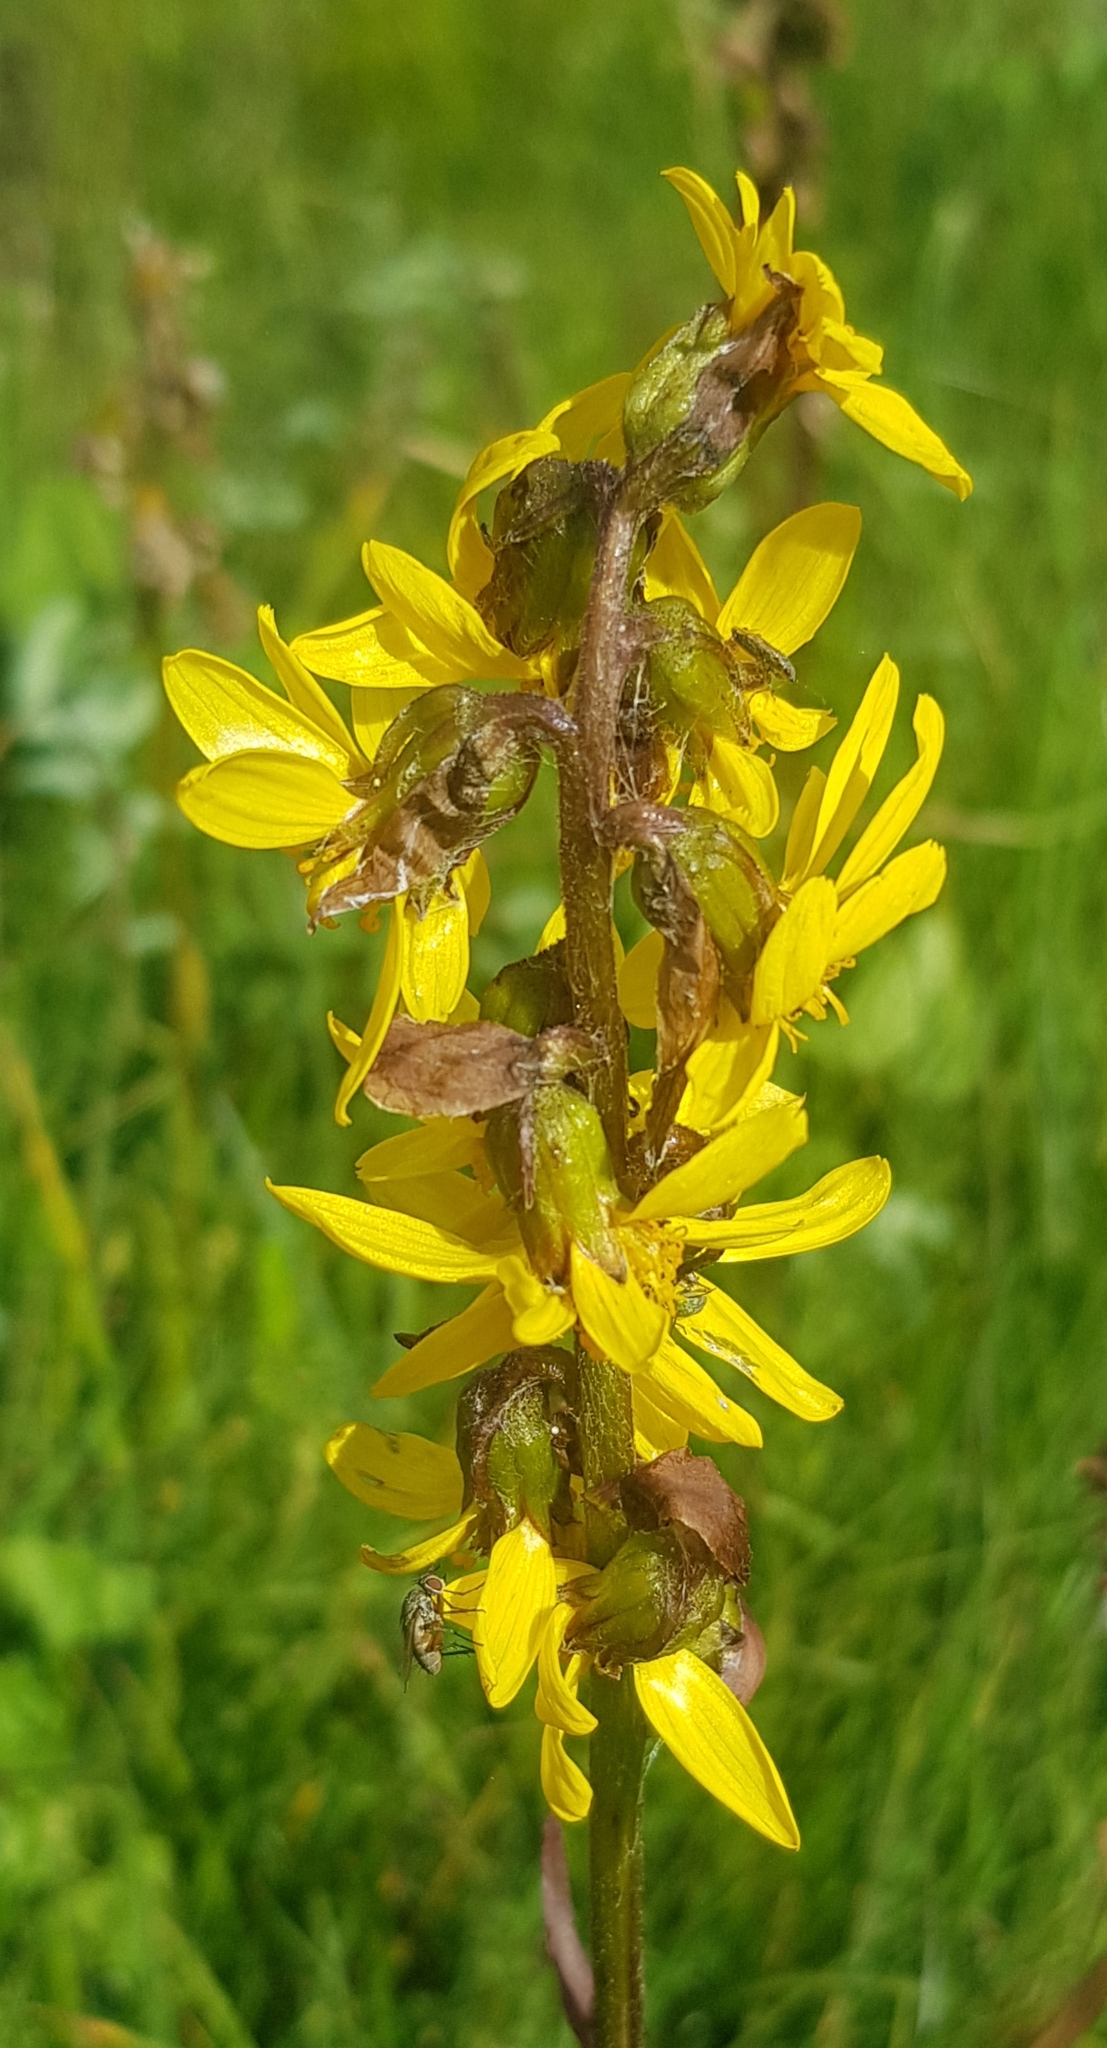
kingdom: Plantae
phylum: Tracheophyta
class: Magnoliopsida
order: Asterales
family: Asteraceae
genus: Ligularia
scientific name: Ligularia sibirica
